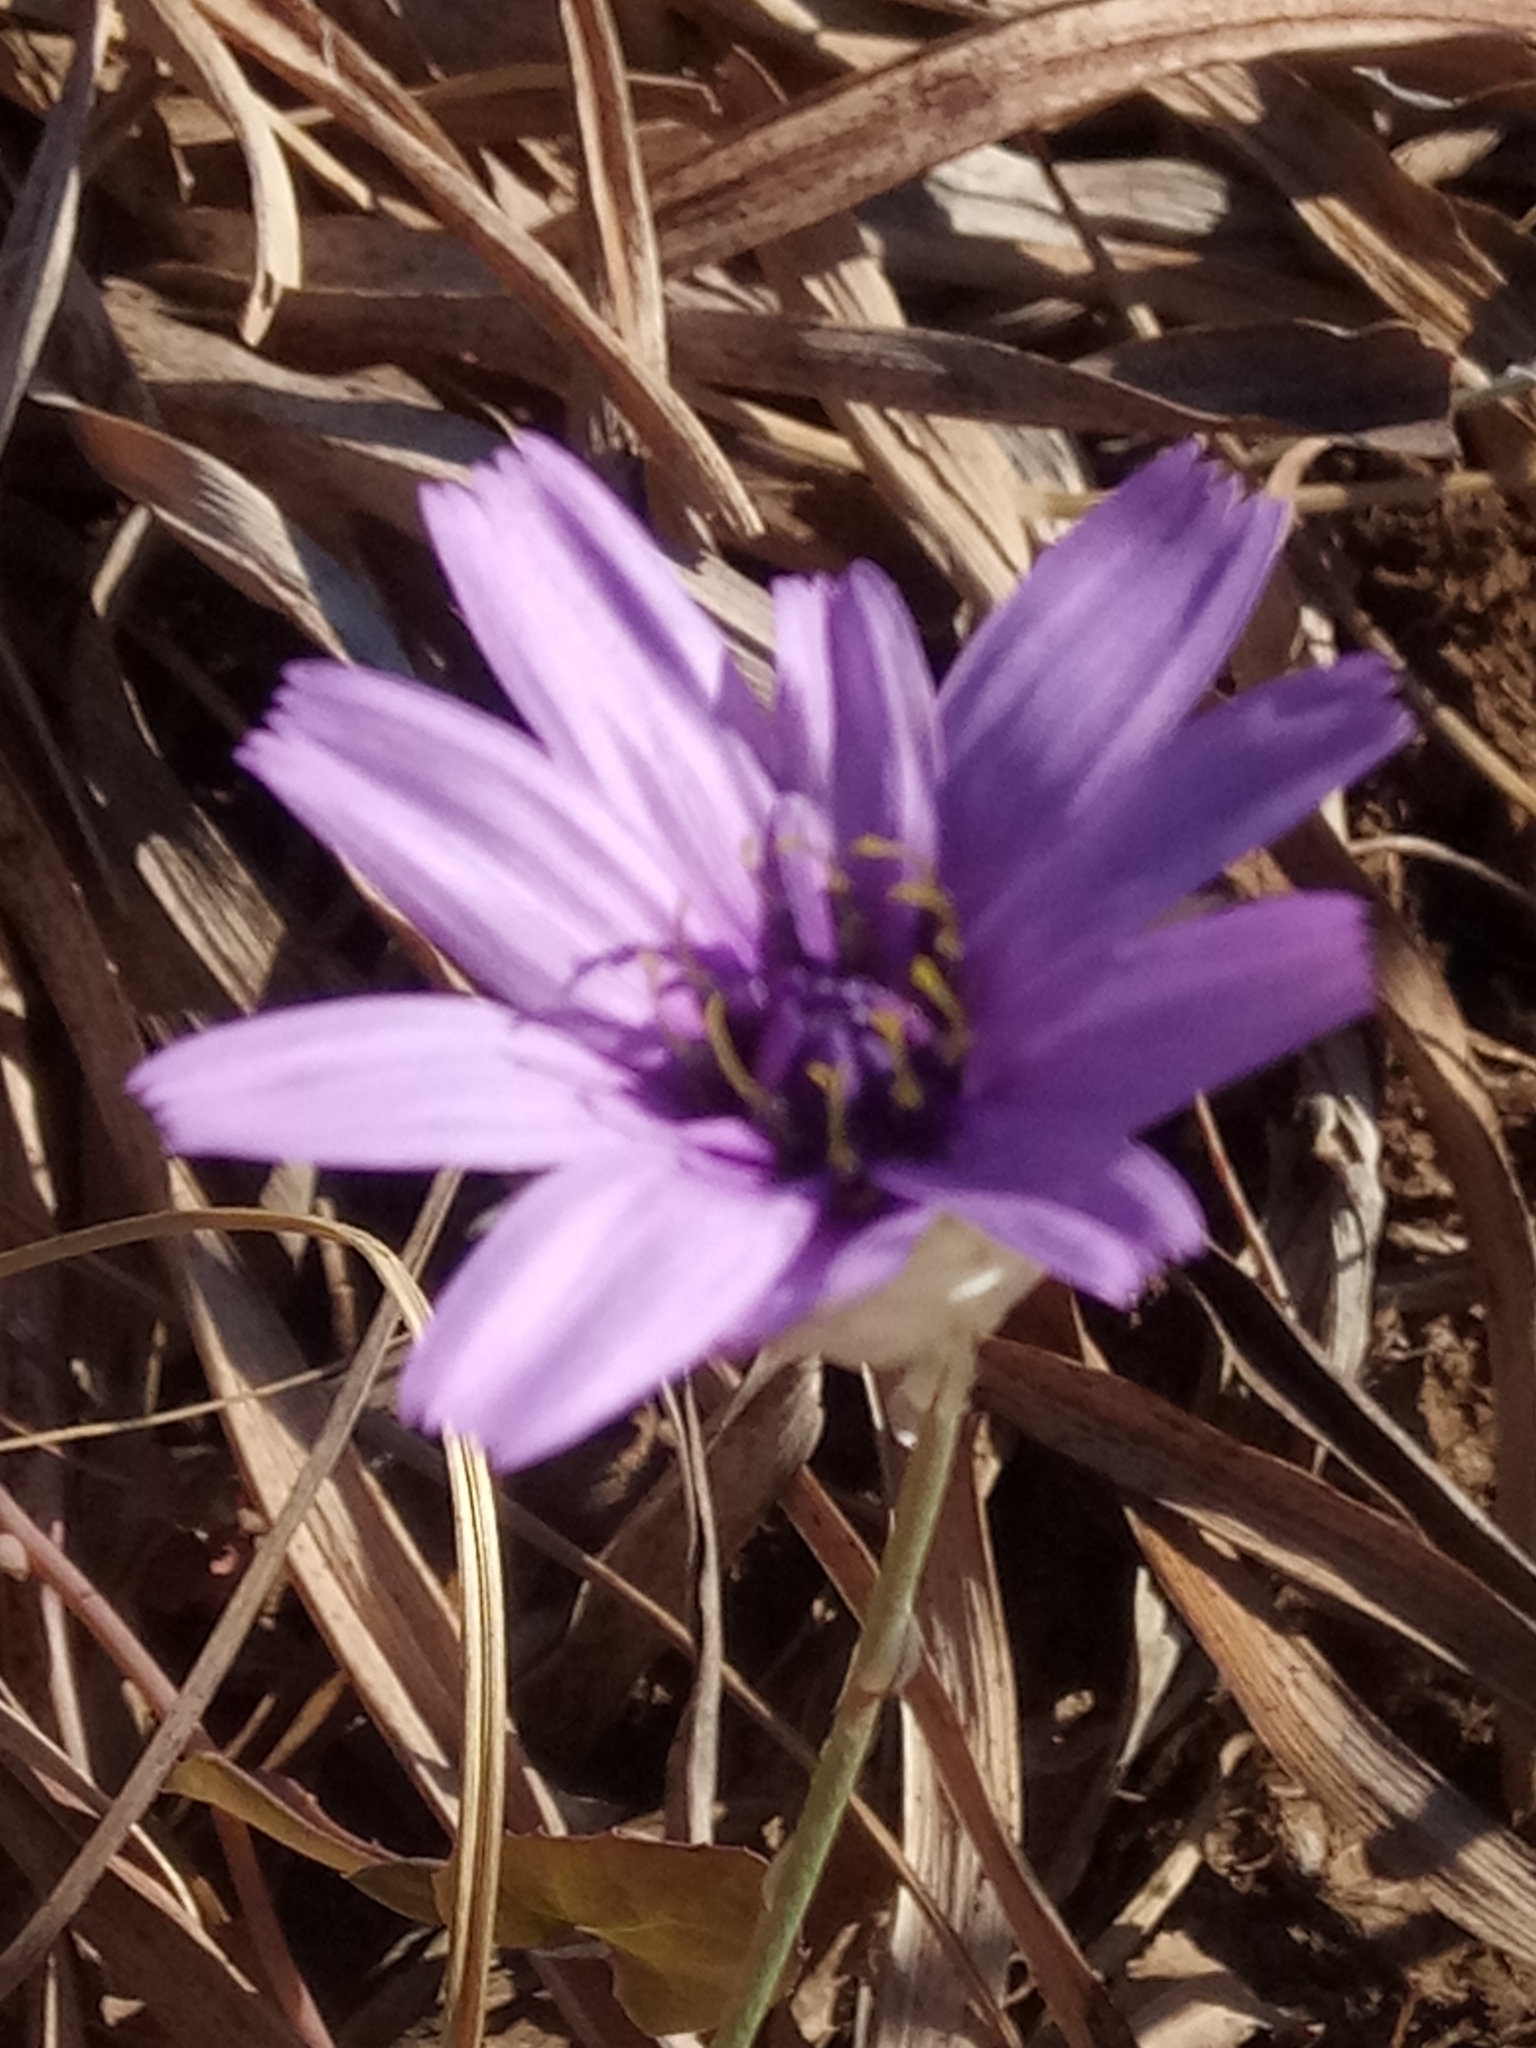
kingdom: Plantae
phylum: Tracheophyta
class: Magnoliopsida
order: Asterales
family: Asteraceae
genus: Catananche
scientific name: Catananche caerulea
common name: Blue cupidone
